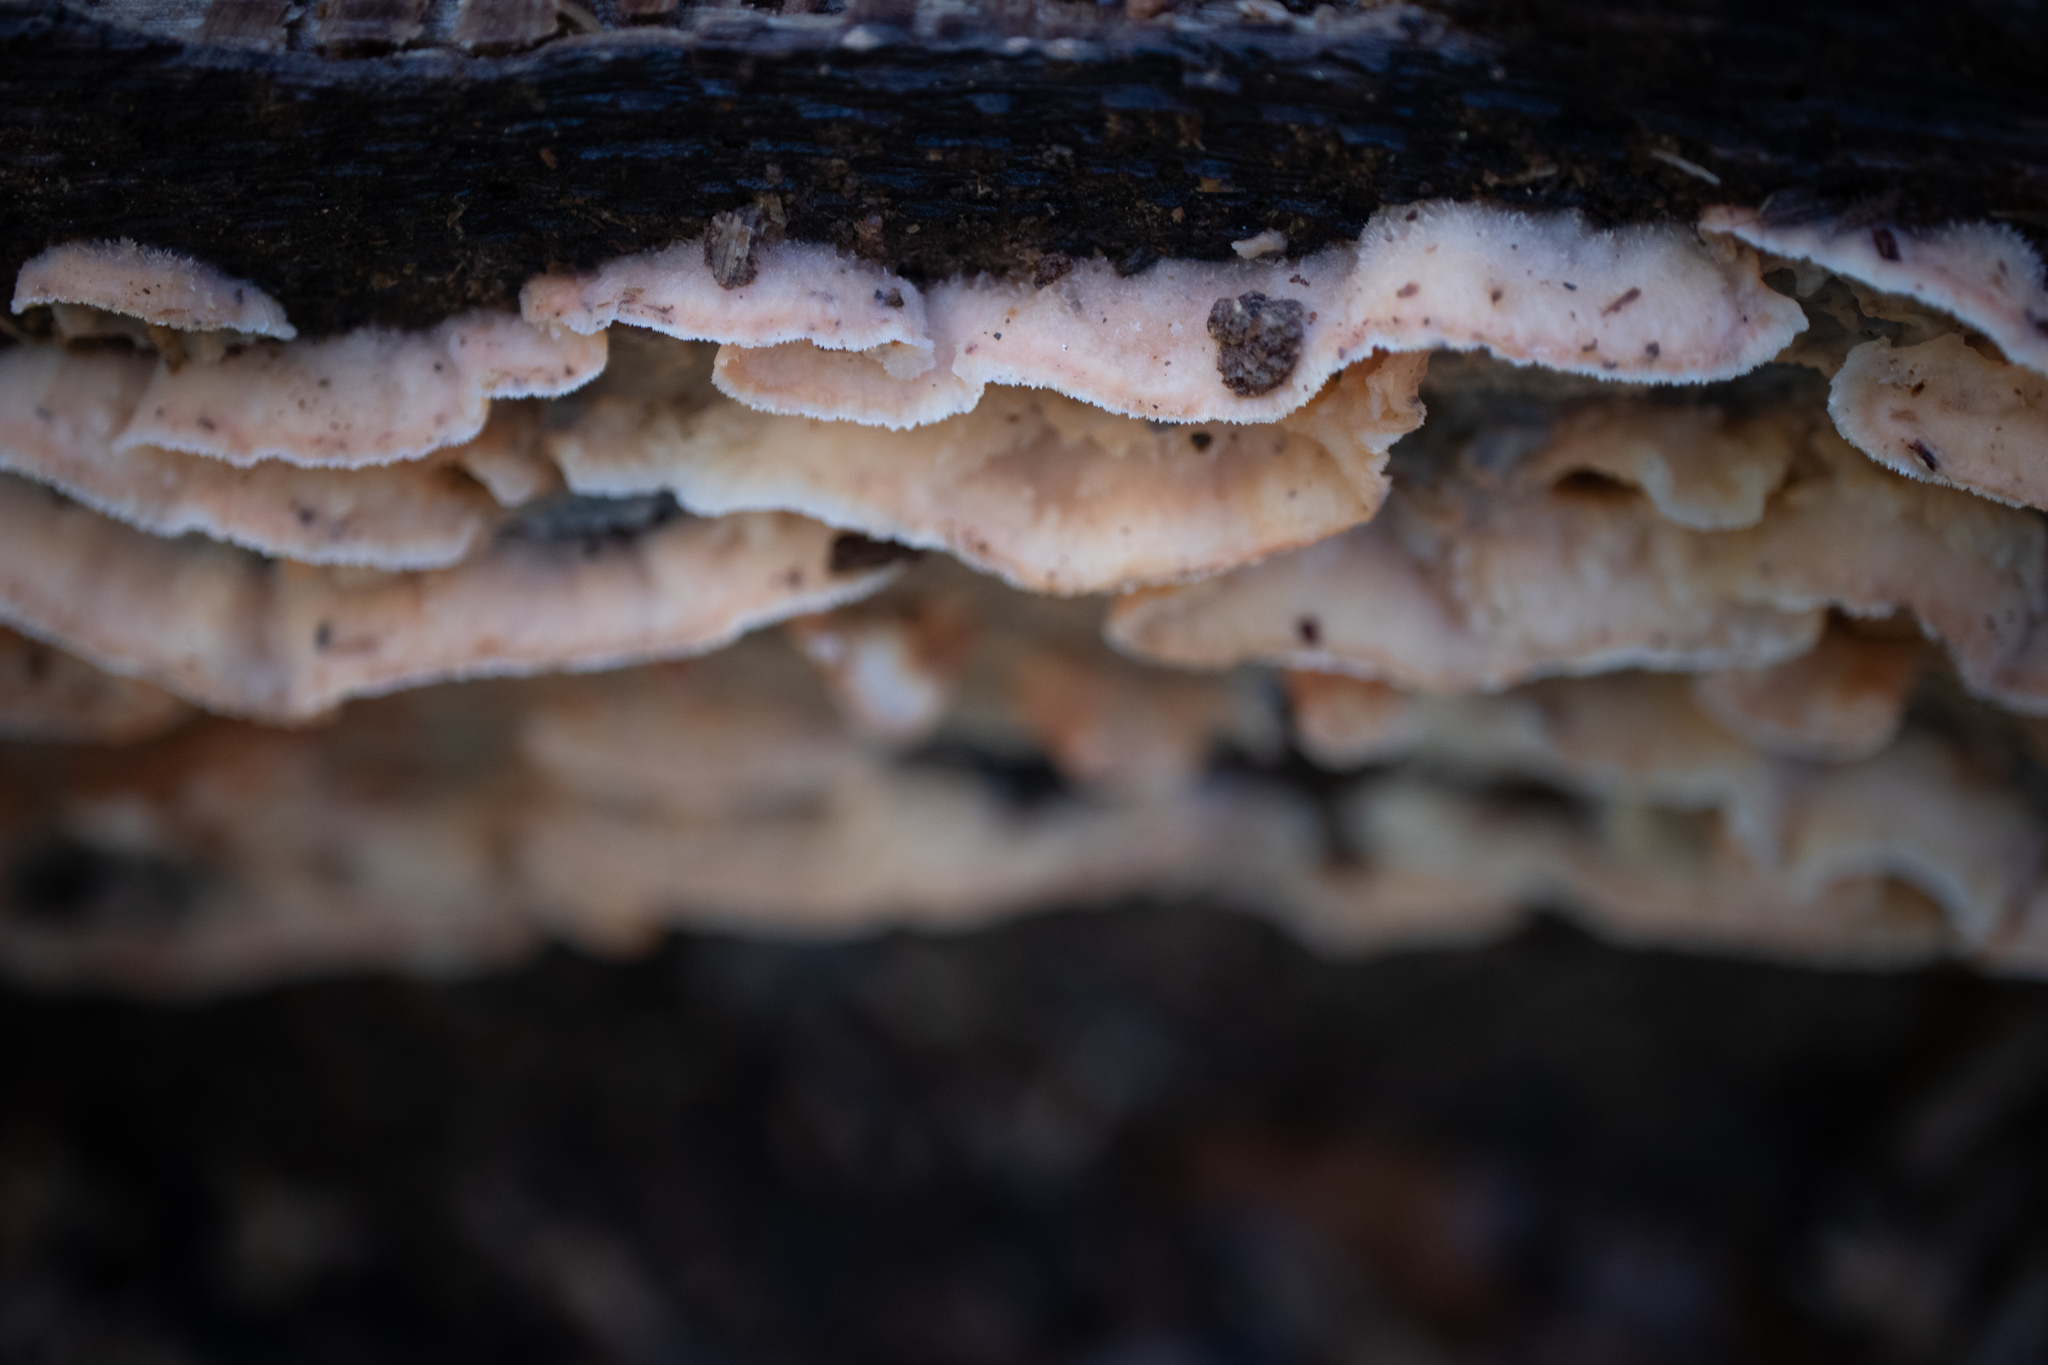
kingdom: Fungi
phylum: Basidiomycota
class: Agaricomycetes
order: Polyporales
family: Meruliaceae
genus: Phlebia
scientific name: Phlebia tremellosa
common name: Jelly rot
